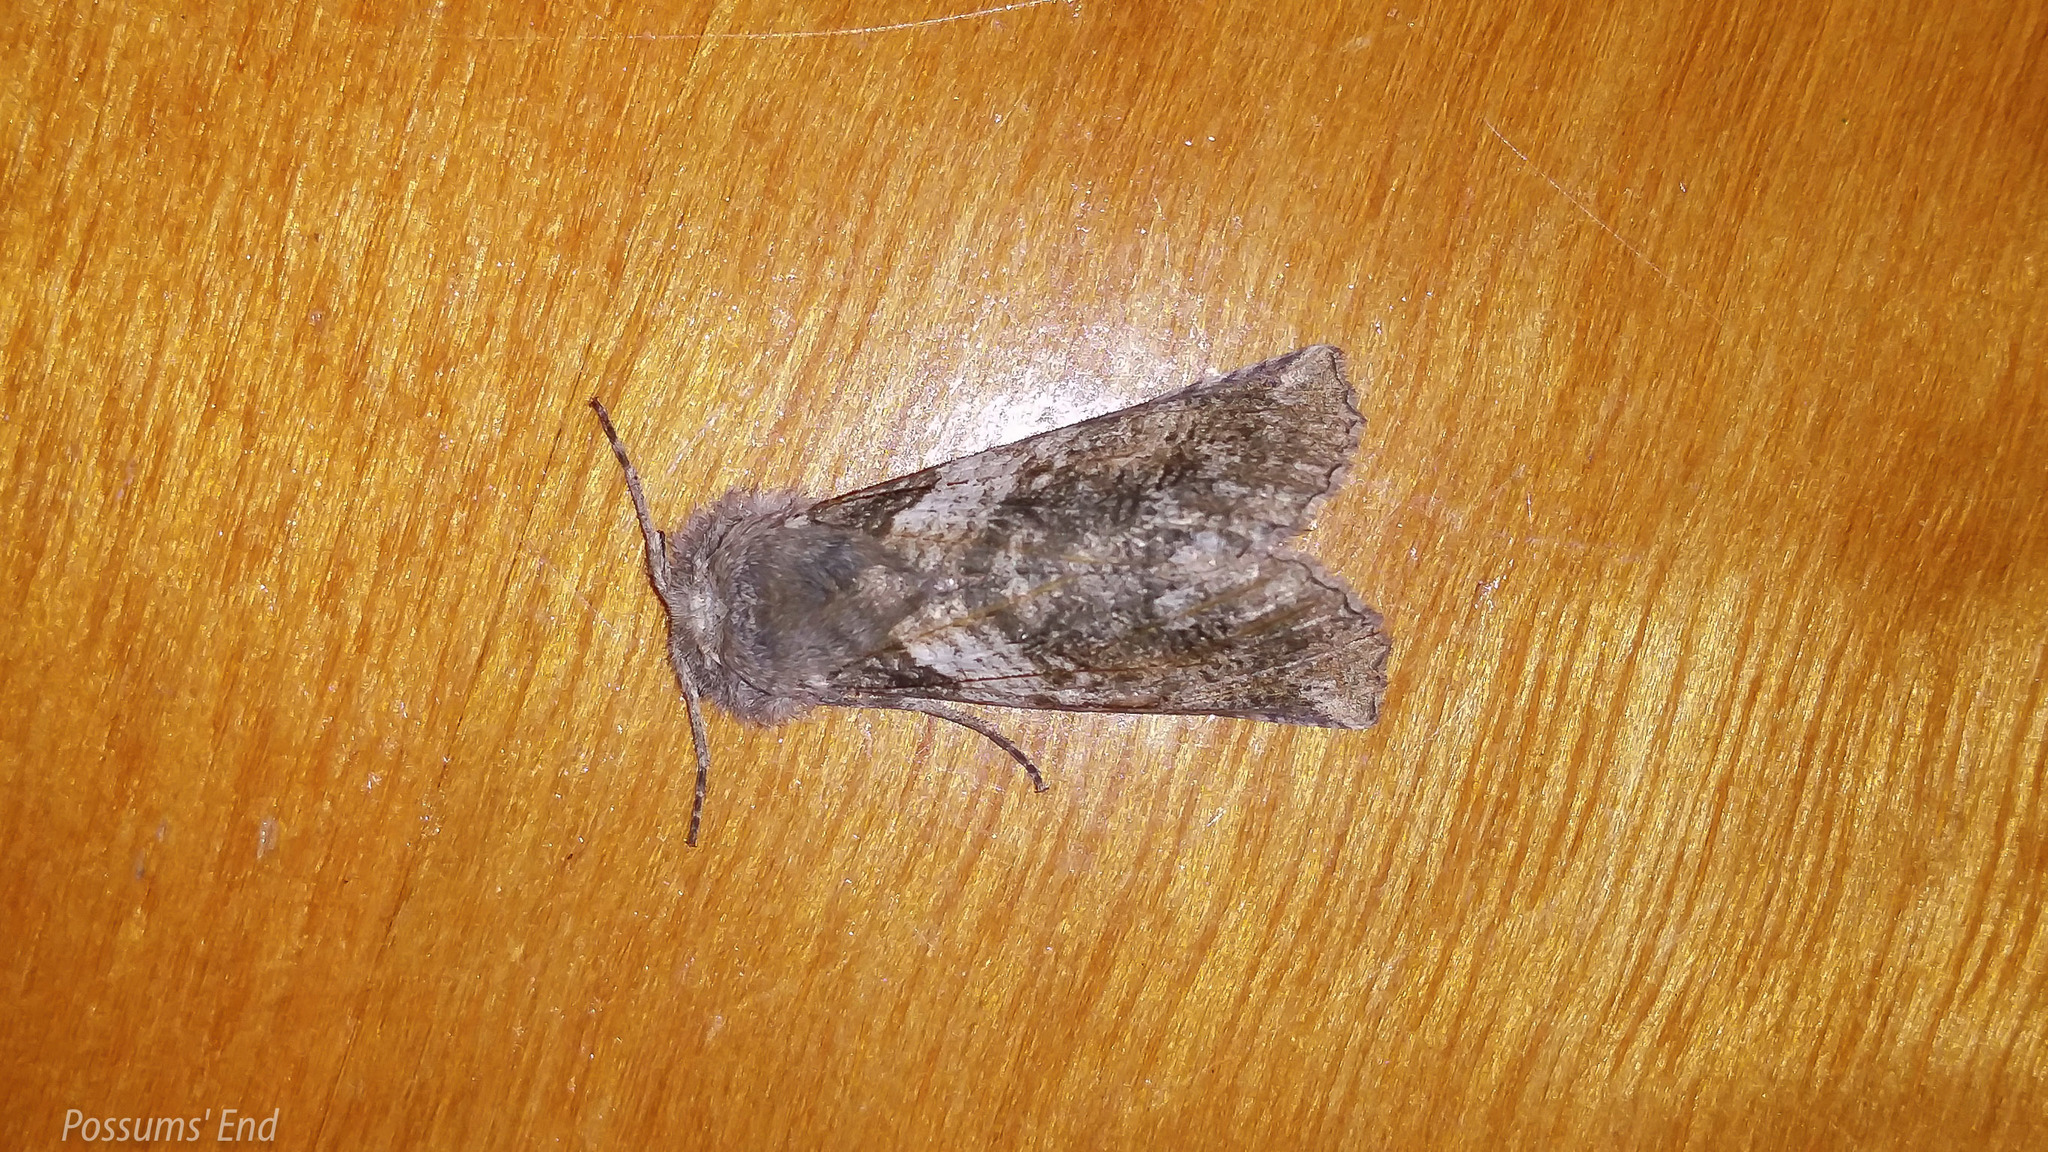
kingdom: Animalia
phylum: Arthropoda
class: Insecta
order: Lepidoptera
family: Geometridae
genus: Declana
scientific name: Declana
